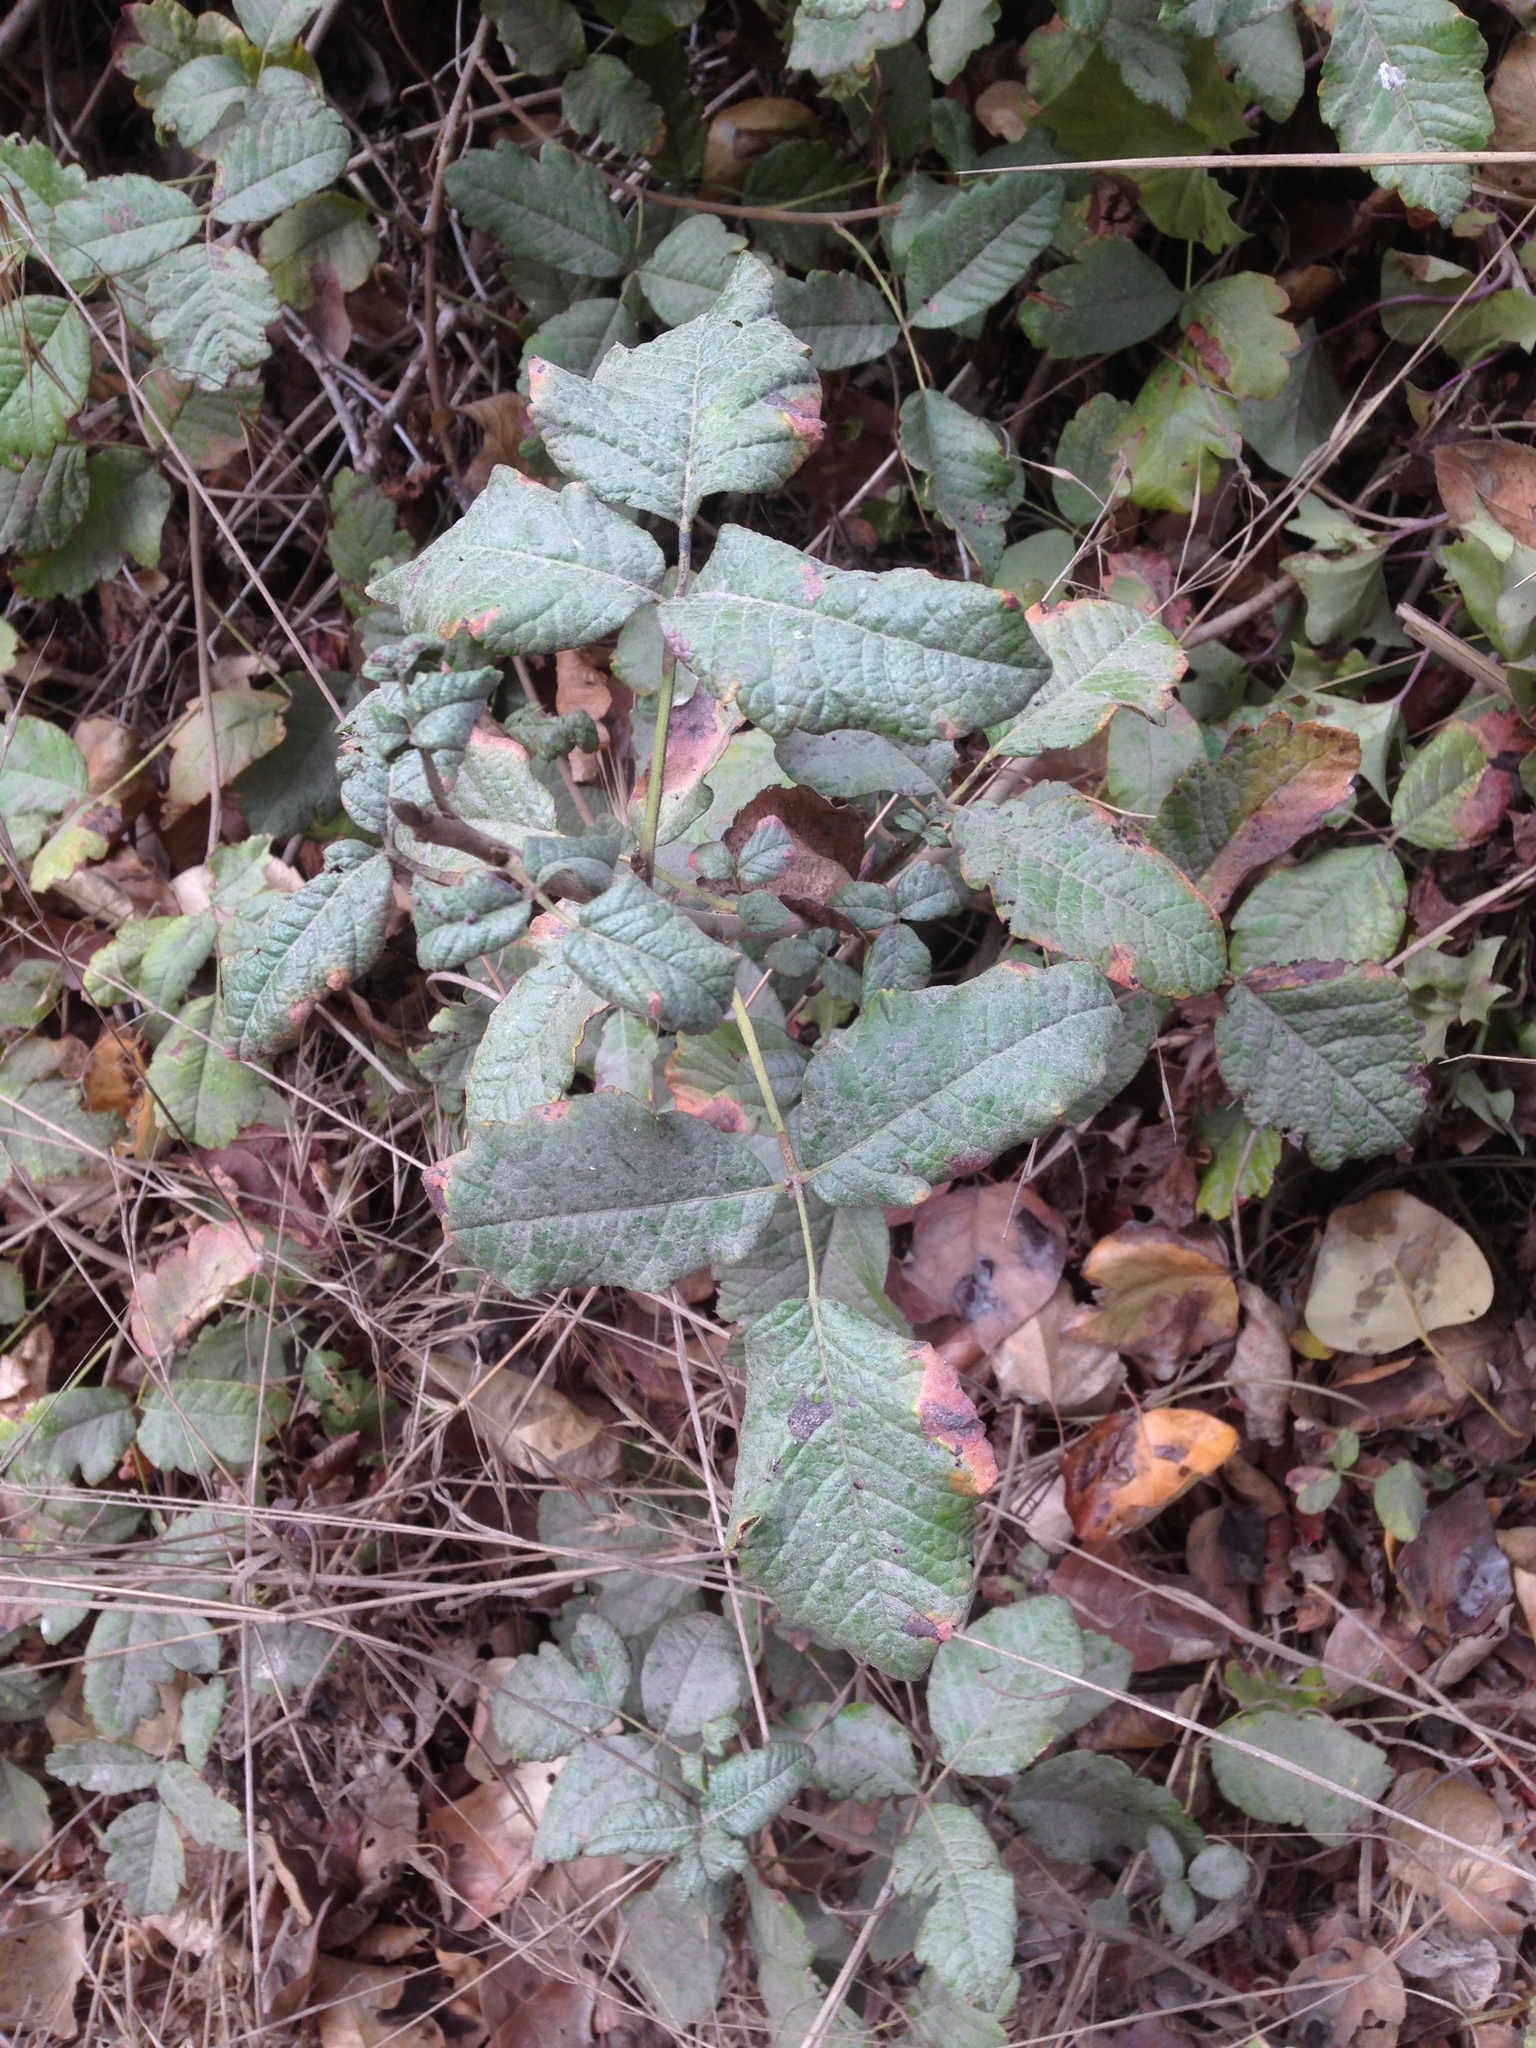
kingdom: Plantae
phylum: Tracheophyta
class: Magnoliopsida
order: Sapindales
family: Anacardiaceae
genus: Toxicodendron
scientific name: Toxicodendron diversilobum
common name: Pacific poison-oak
